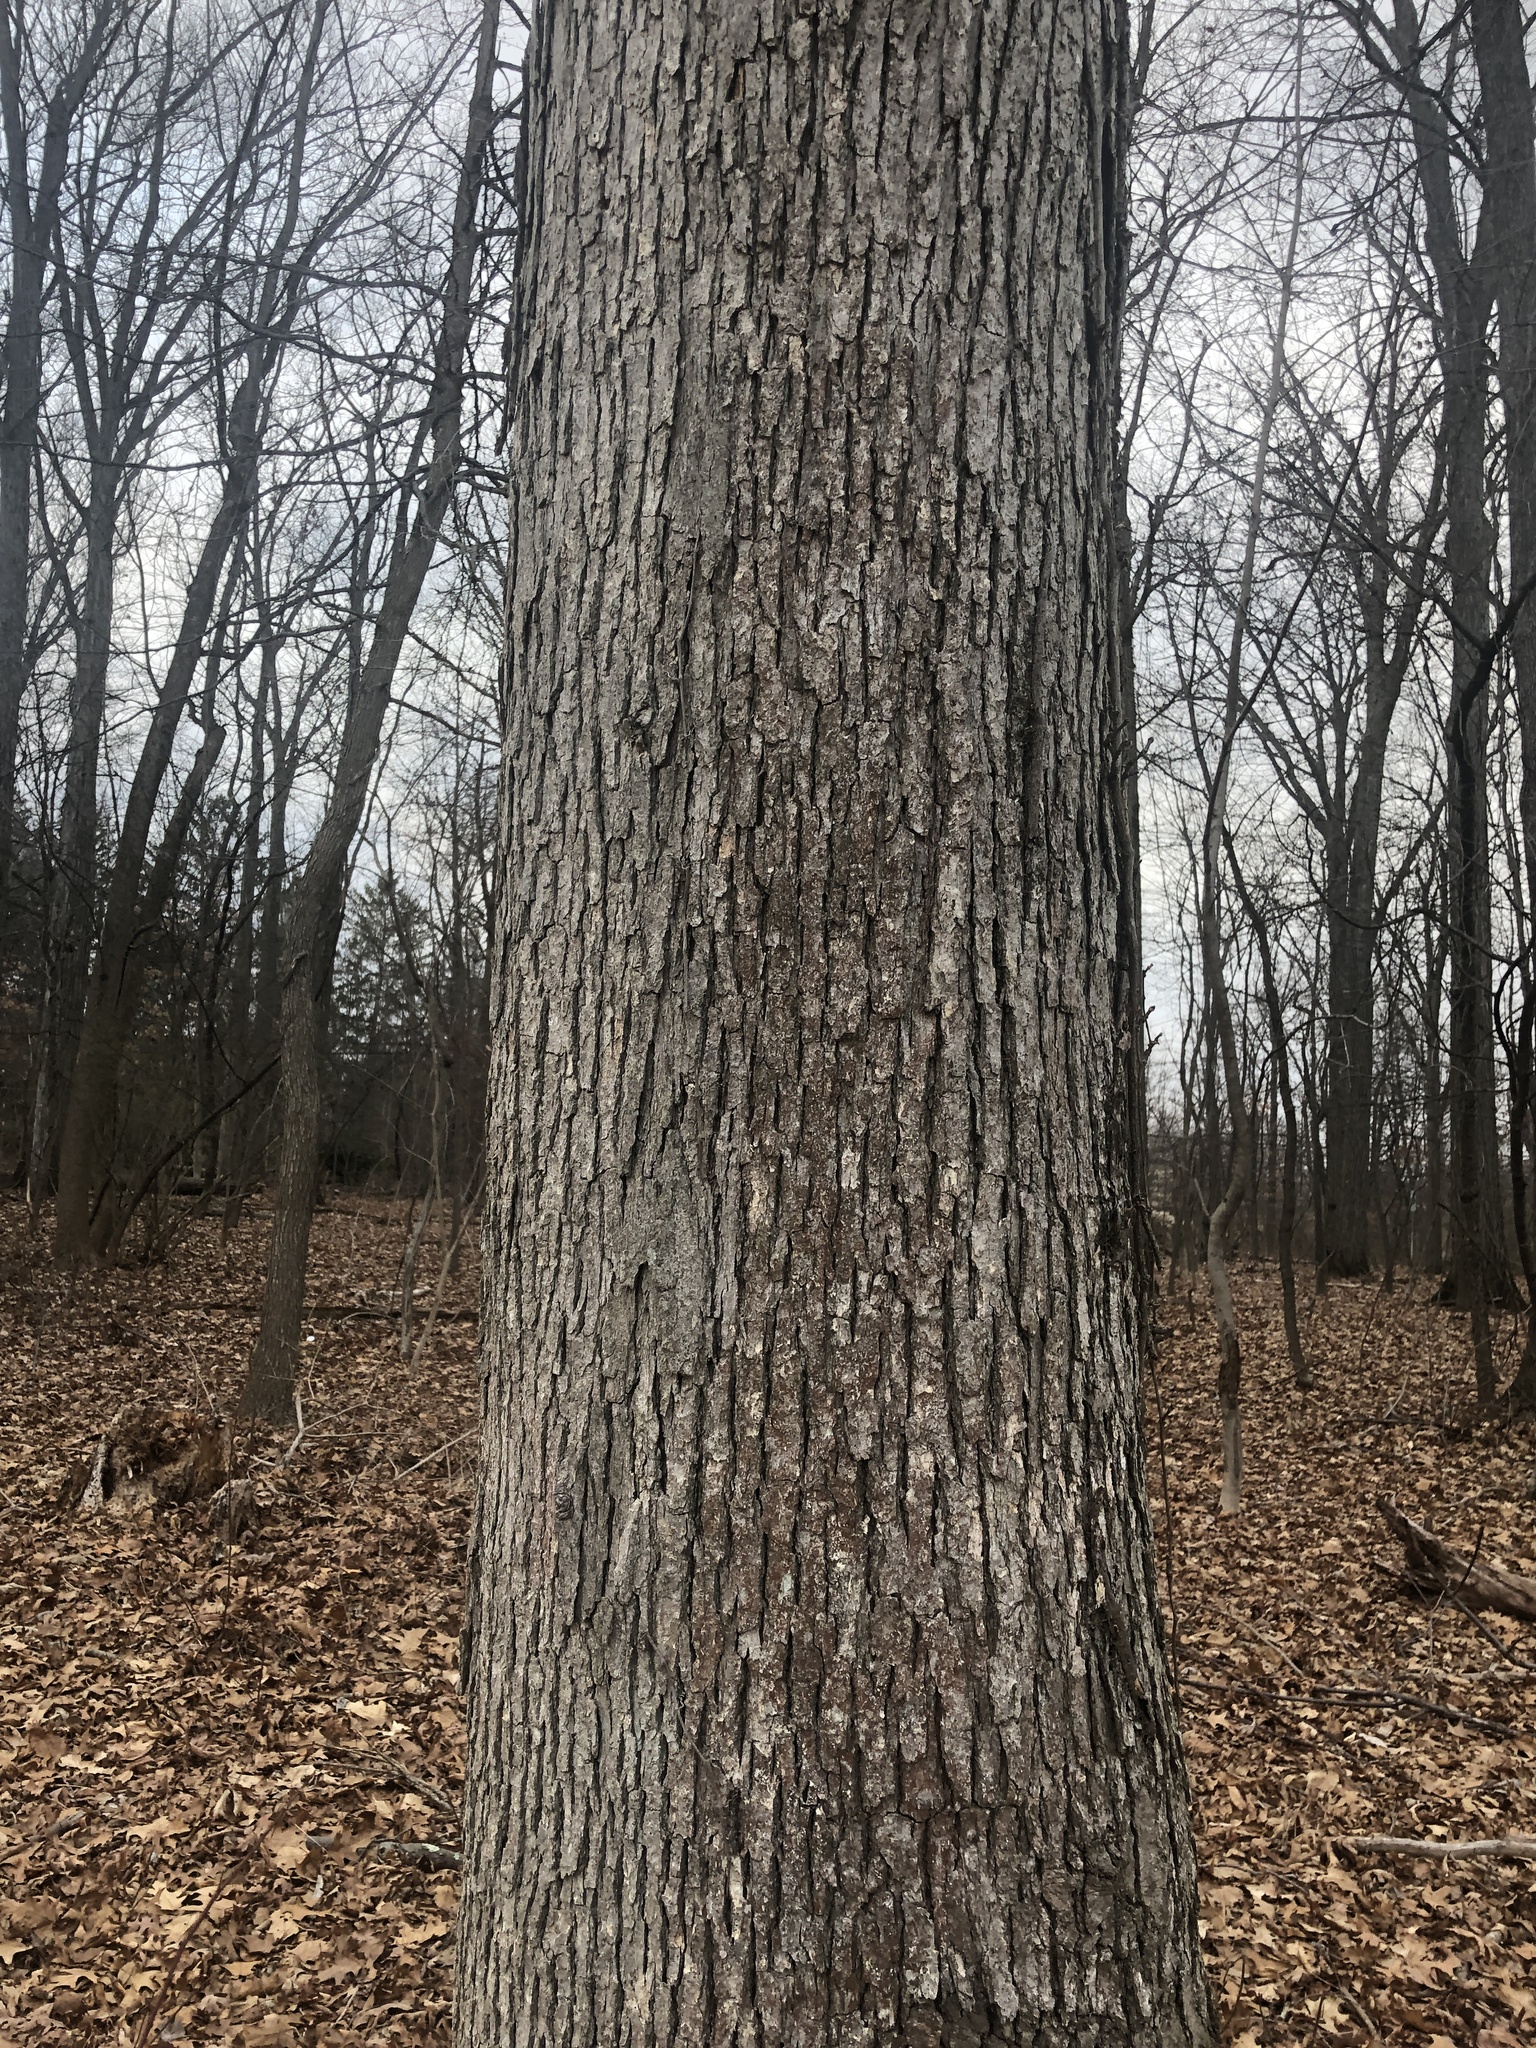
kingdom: Plantae
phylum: Tracheophyta
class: Magnoliopsida
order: Fagales
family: Fagaceae
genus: Quercus
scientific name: Quercus alba
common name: White oak
